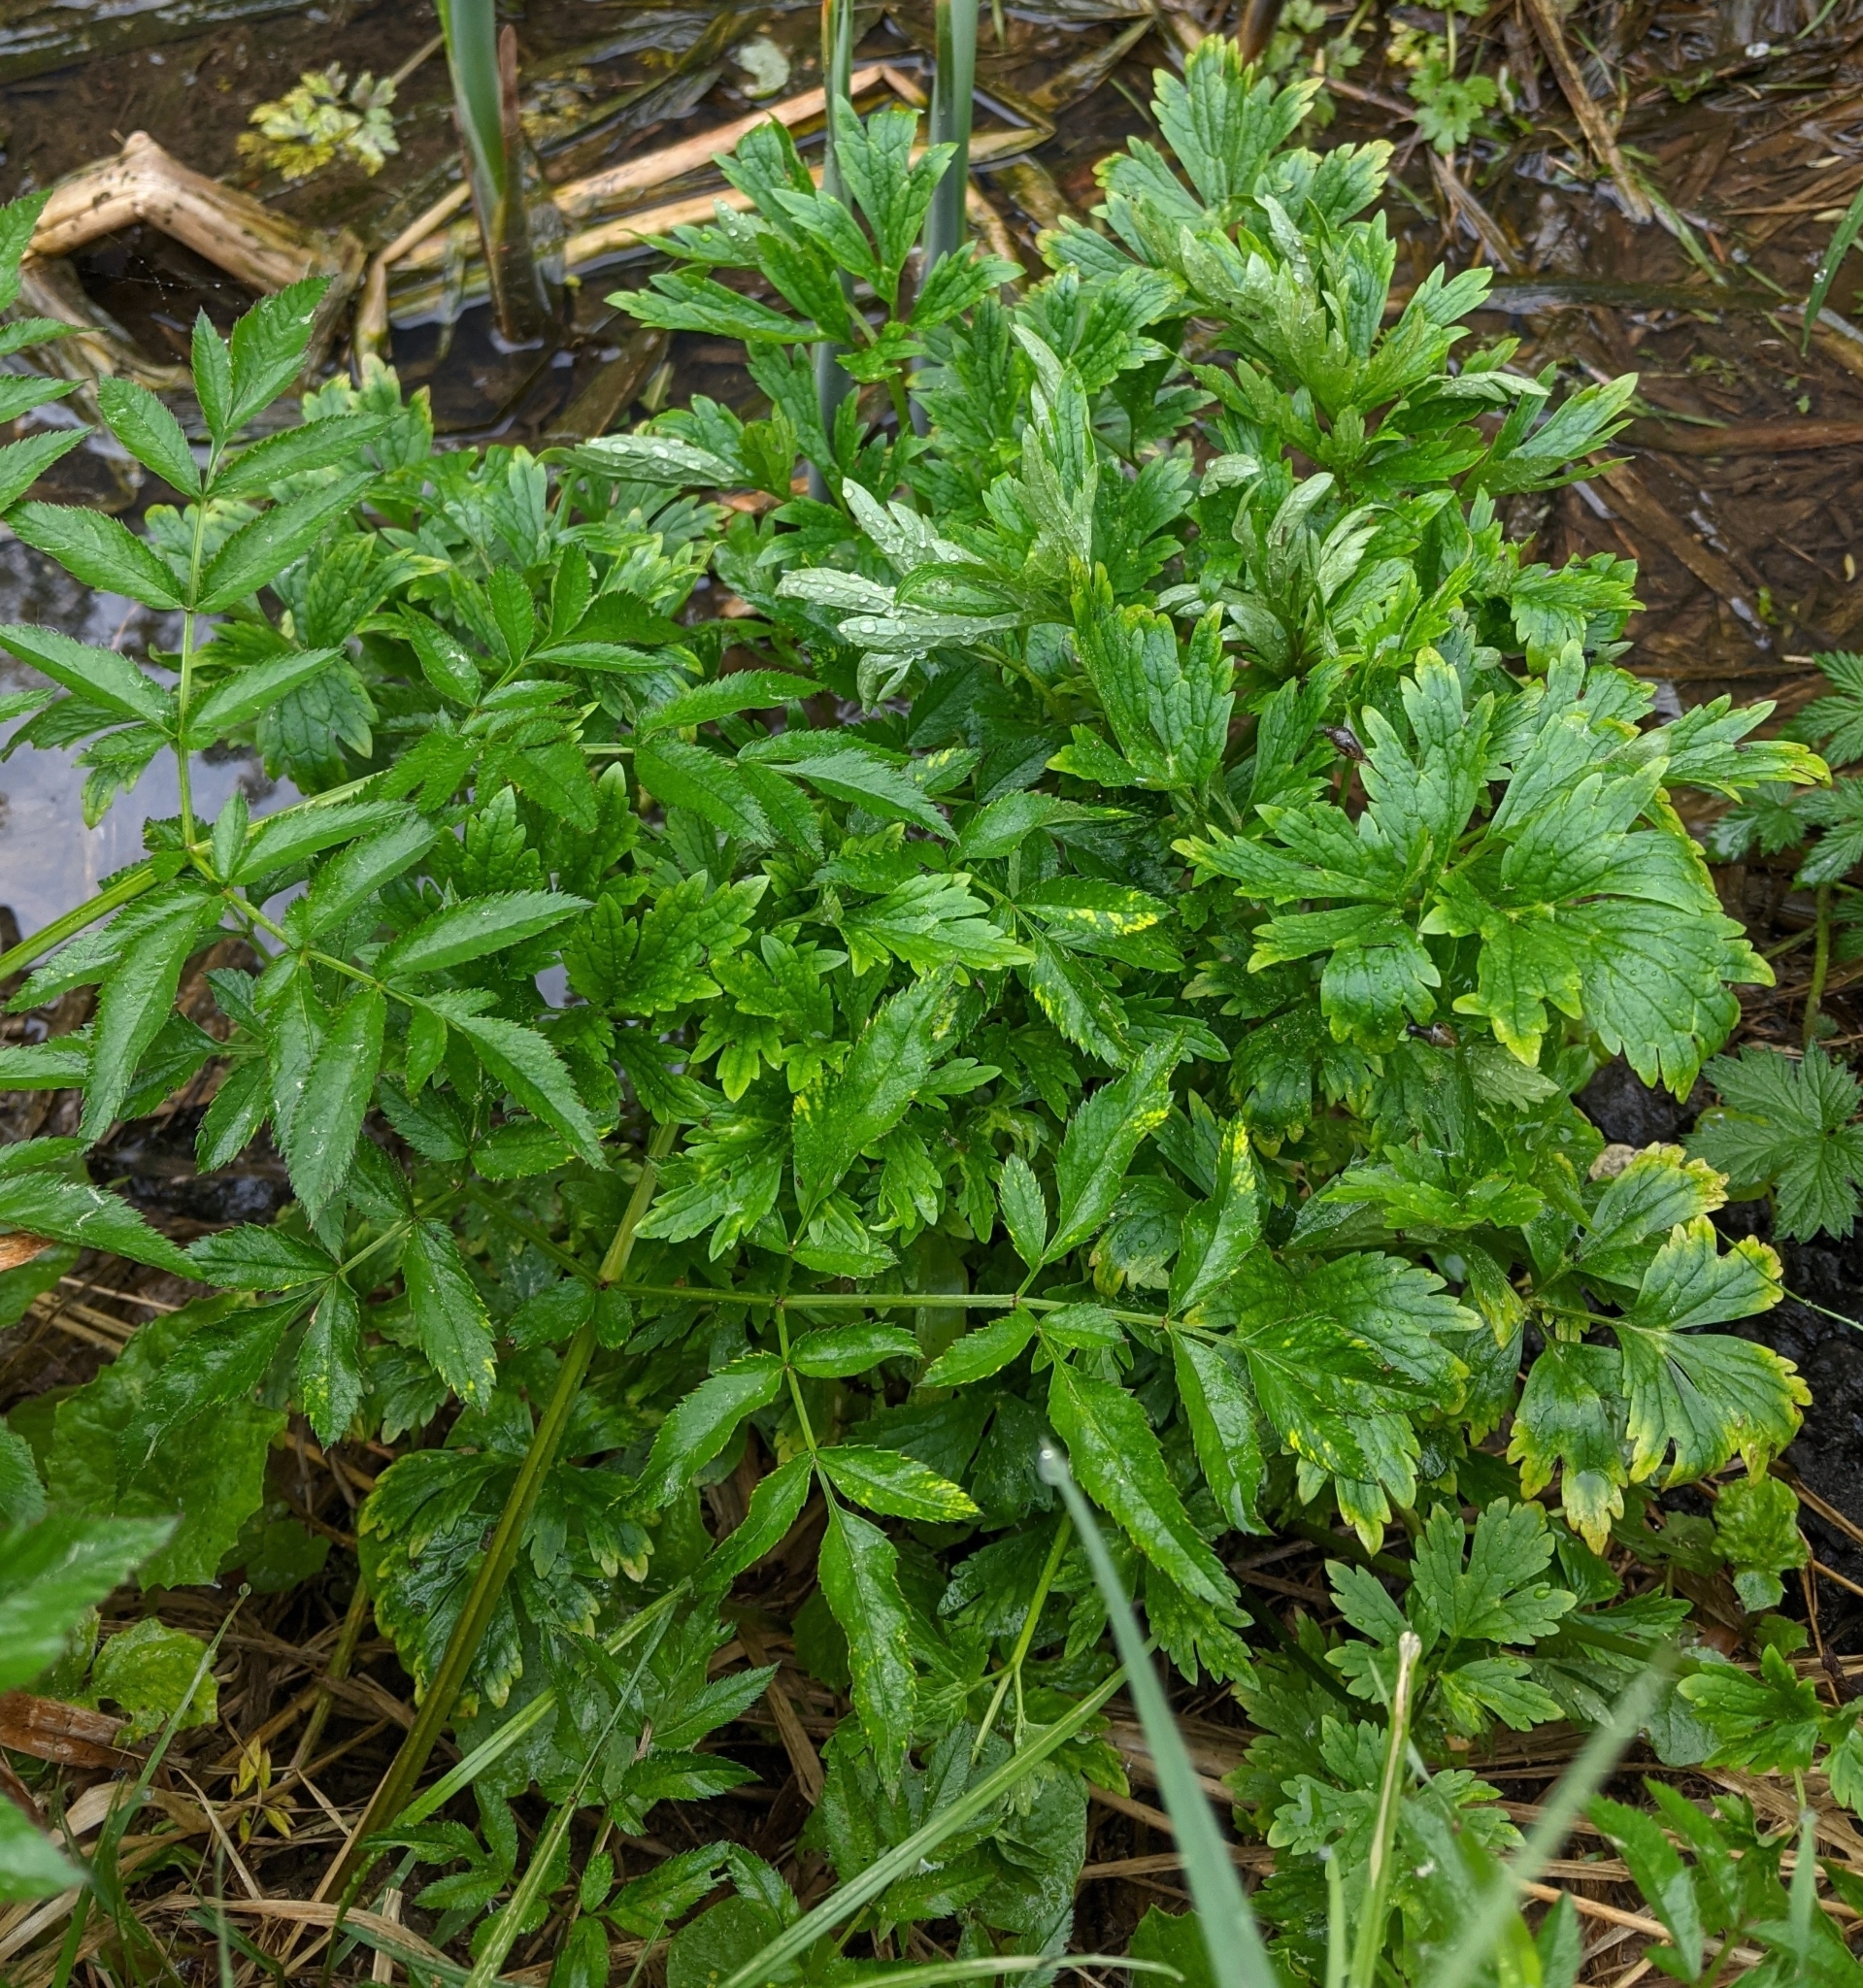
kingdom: Plantae
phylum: Tracheophyta
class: Magnoliopsida
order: Apiales
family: Apiaceae
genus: Angelica
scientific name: Angelica sylvestris
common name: Wild angelica
